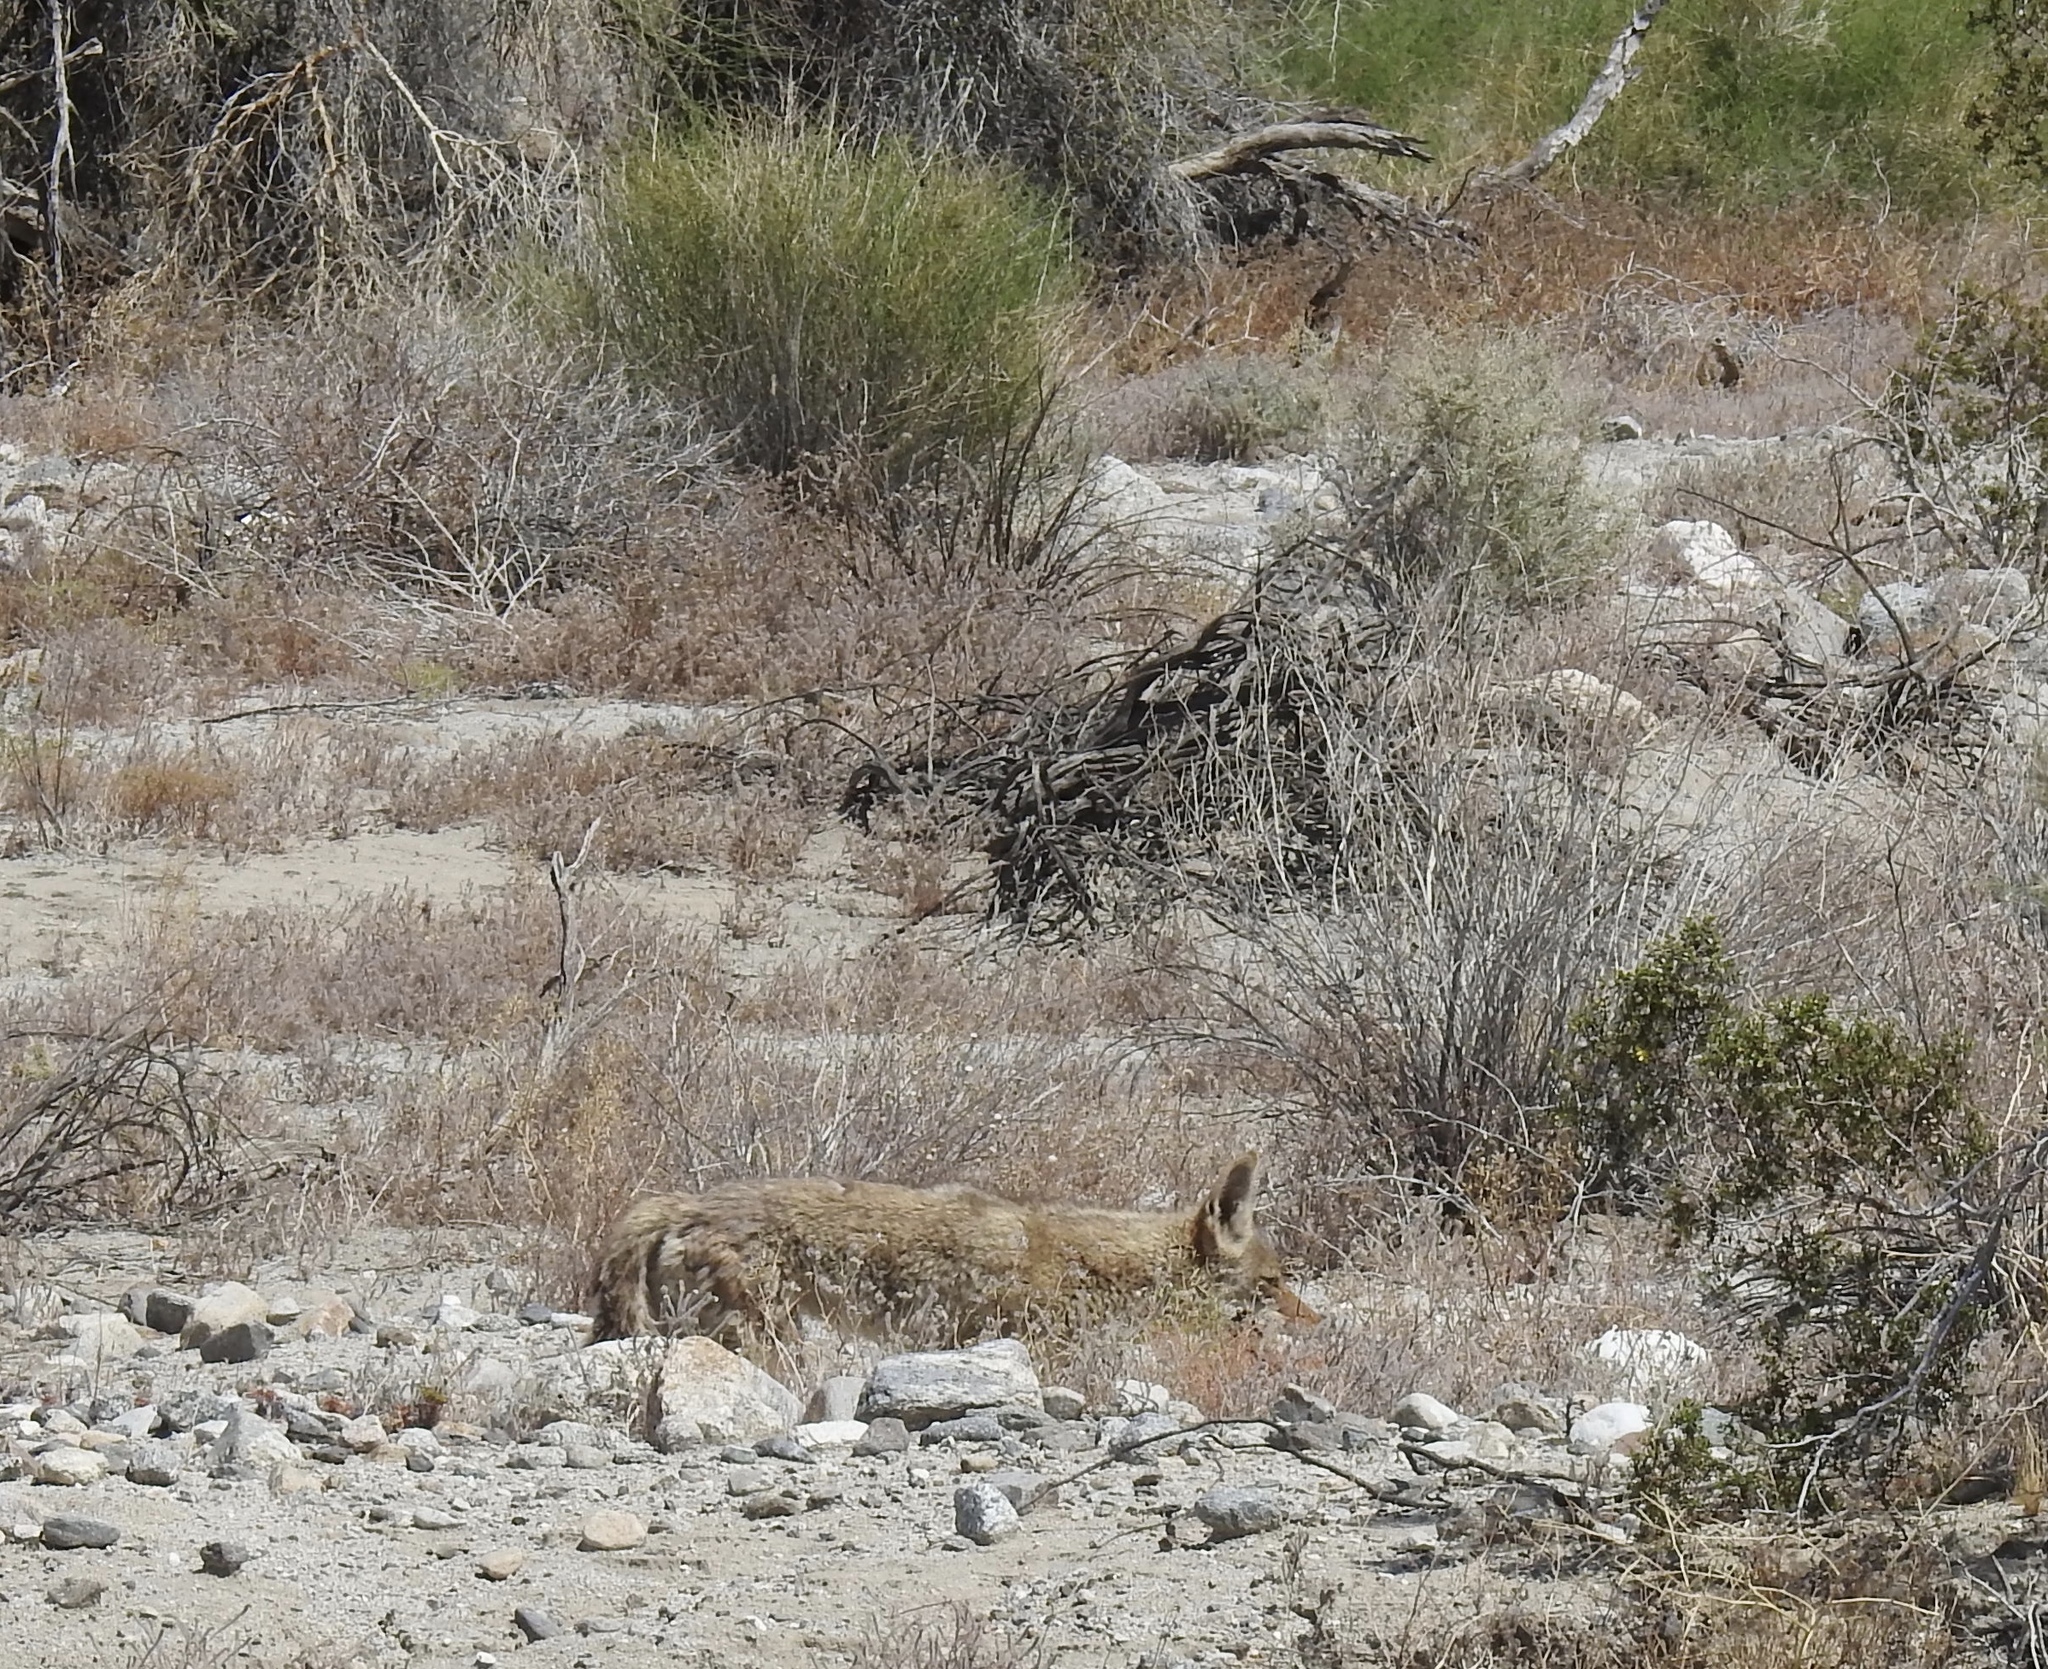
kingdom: Animalia
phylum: Chordata
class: Mammalia
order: Carnivora
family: Canidae
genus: Canis
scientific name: Canis latrans
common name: Coyote
